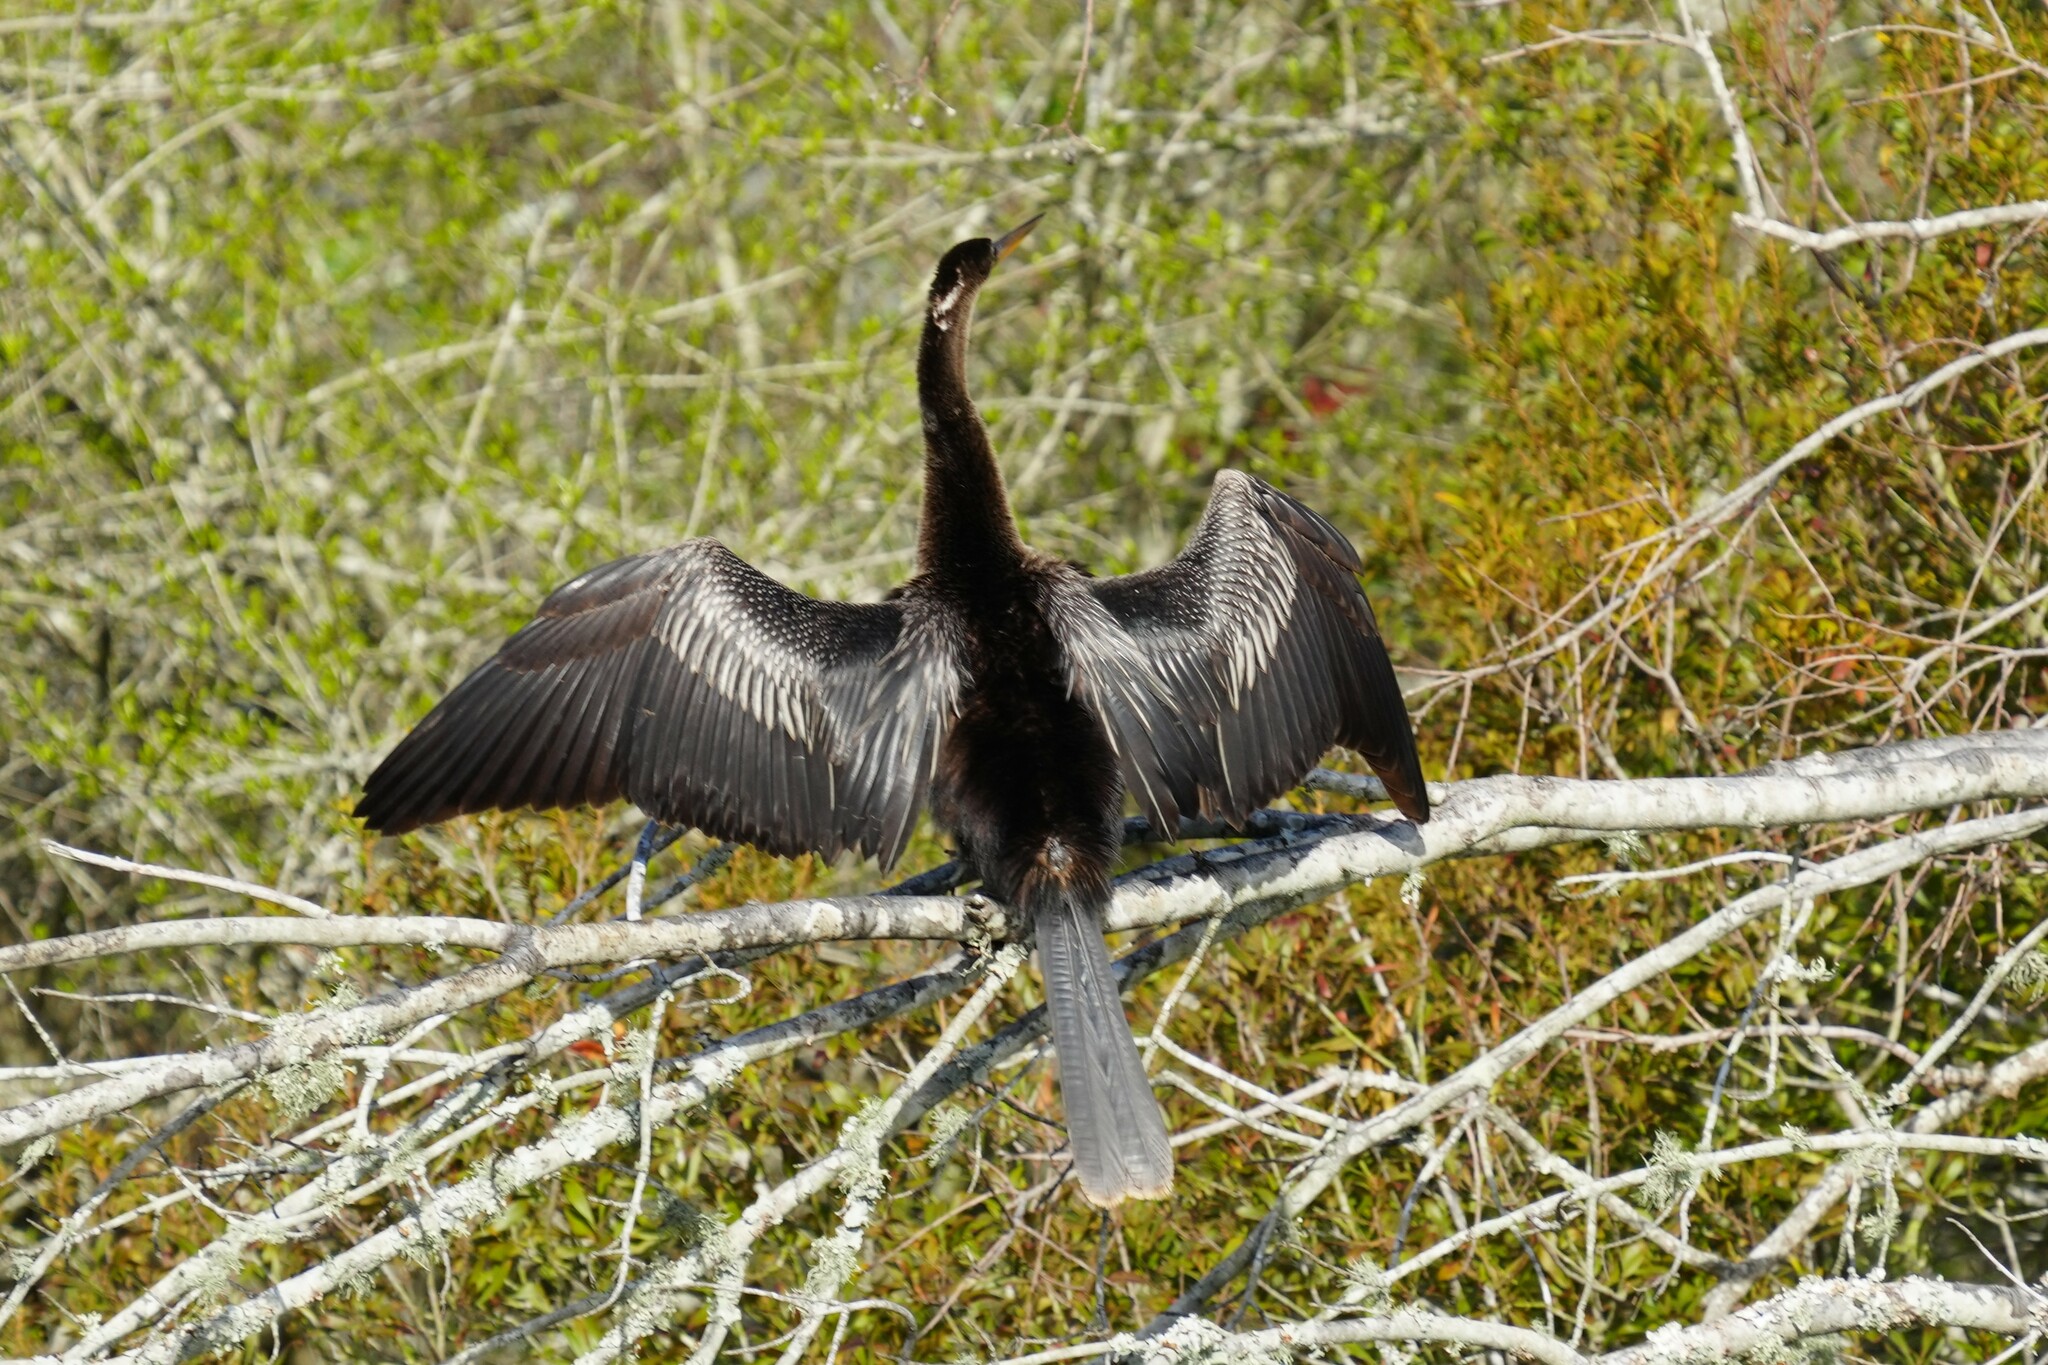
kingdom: Animalia
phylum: Chordata
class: Aves
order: Suliformes
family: Anhingidae
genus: Anhinga
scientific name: Anhinga anhinga
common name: Anhinga
